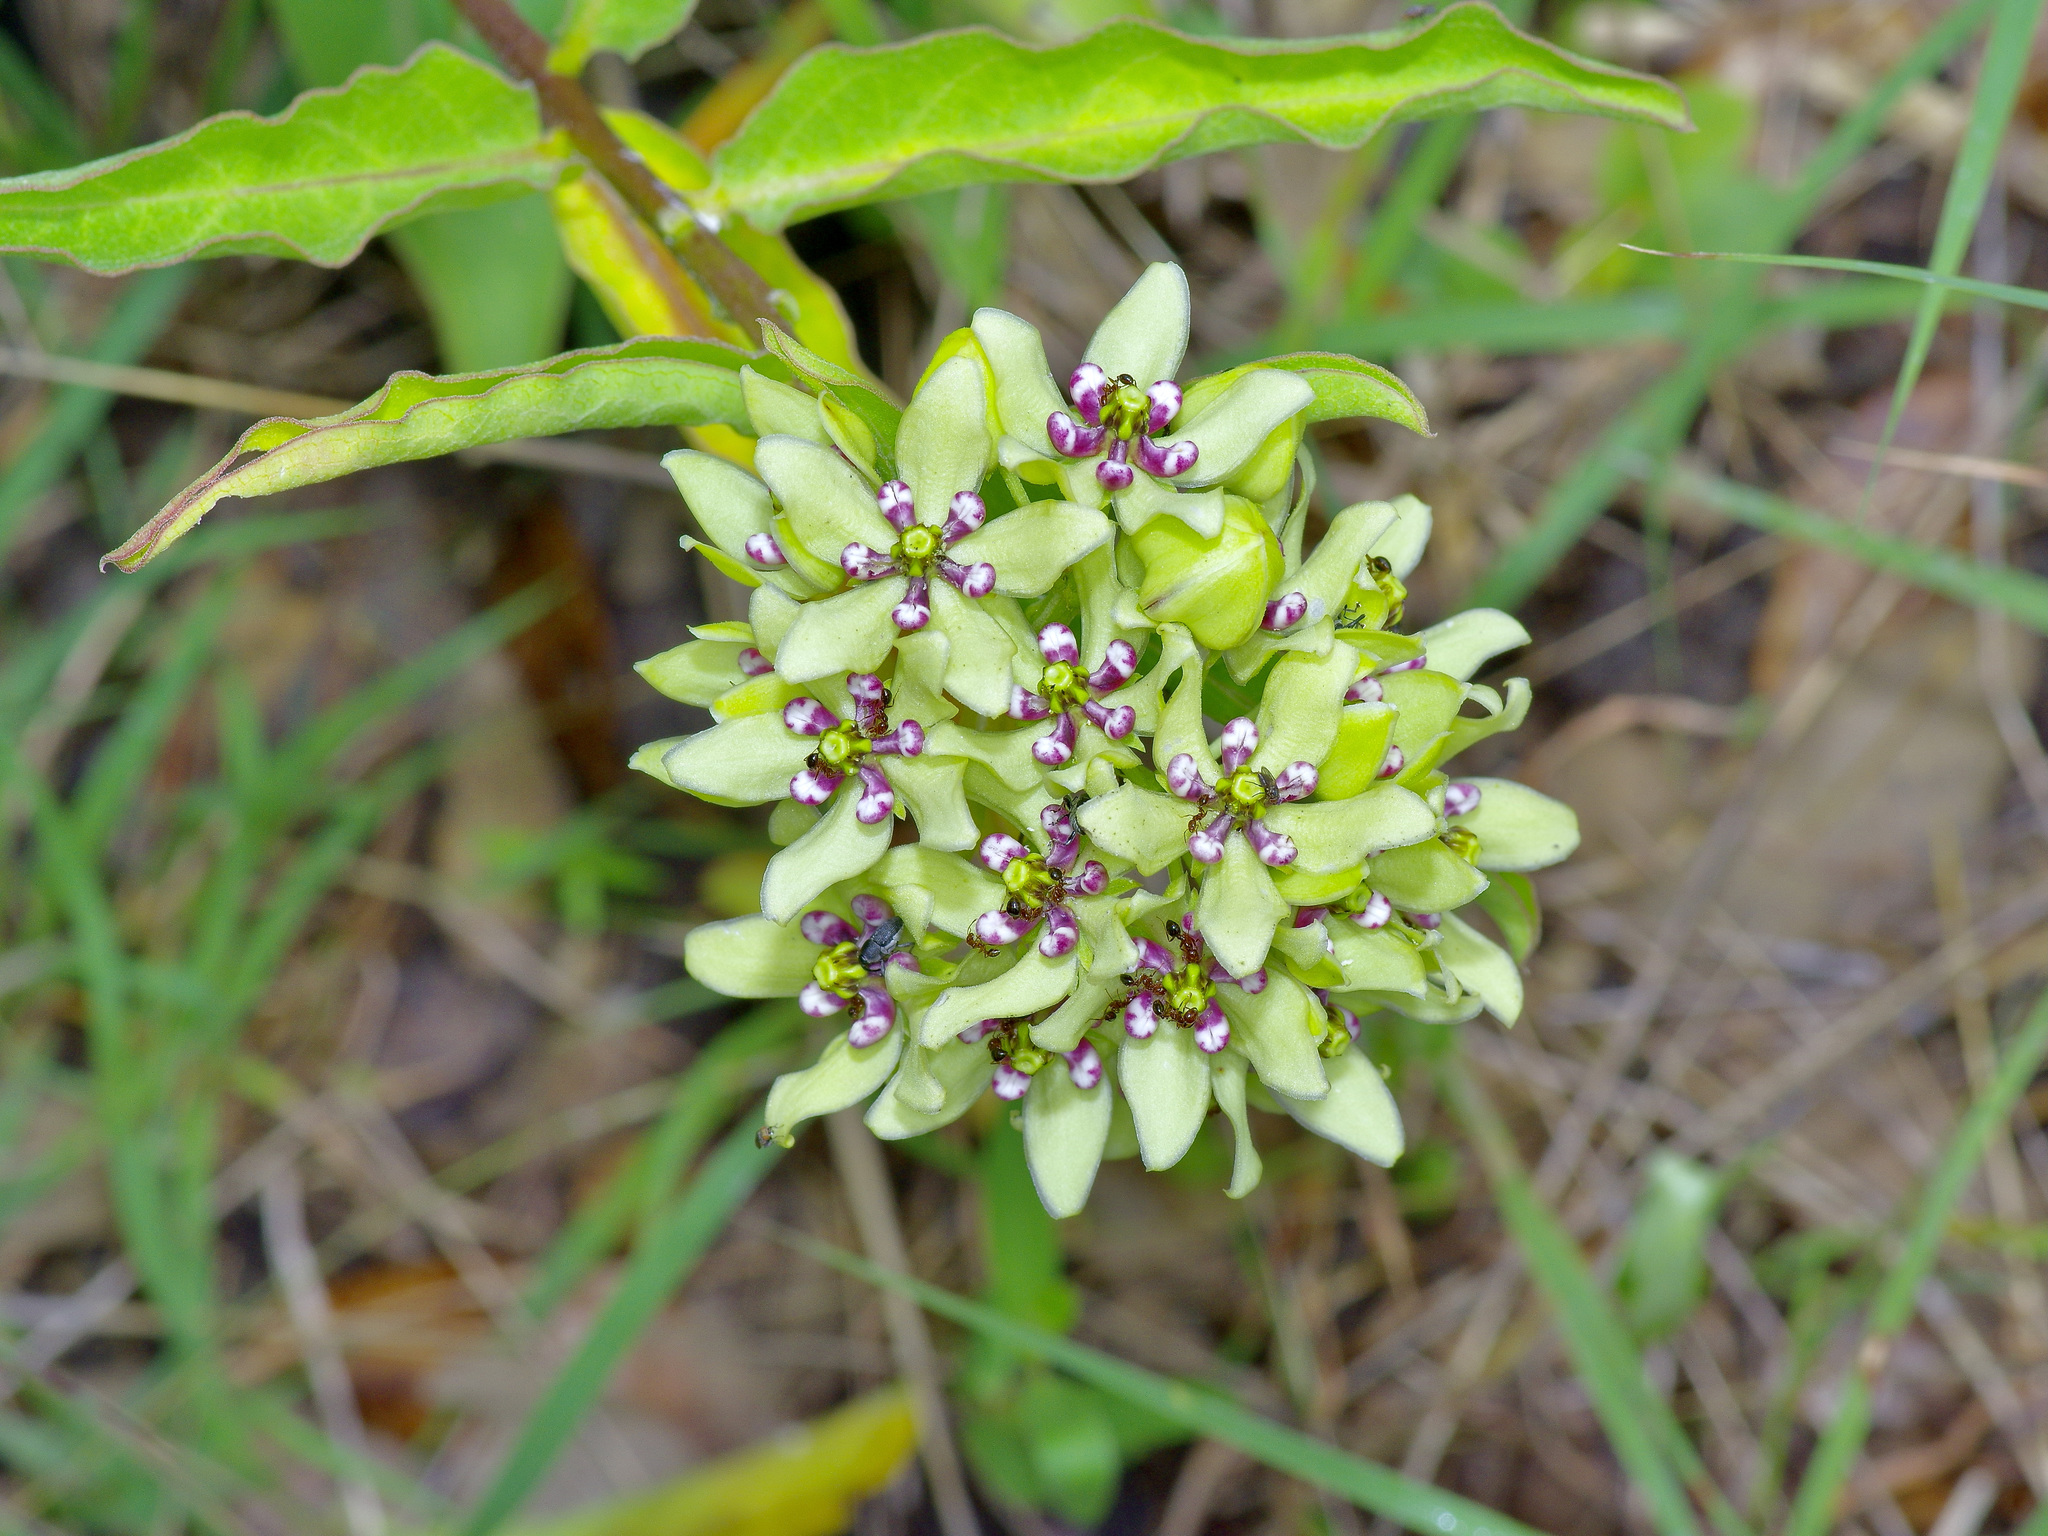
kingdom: Plantae
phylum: Tracheophyta
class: Magnoliopsida
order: Gentianales
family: Apocynaceae
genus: Asclepias
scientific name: Asclepias viridis
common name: Antelope-horns
